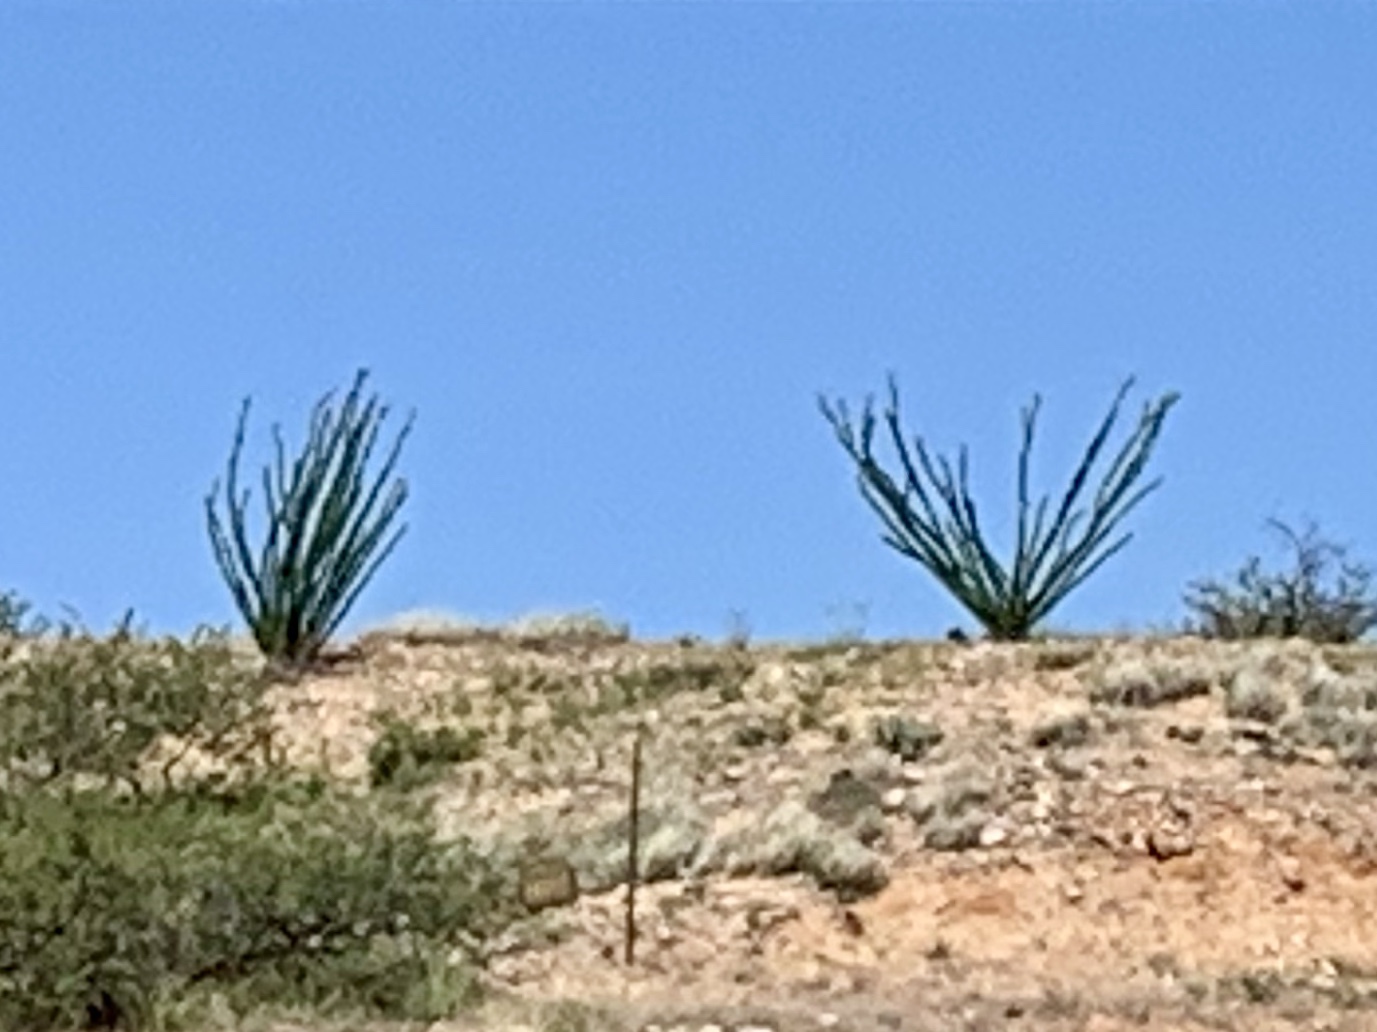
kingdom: Plantae
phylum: Tracheophyta
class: Magnoliopsida
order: Ericales
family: Fouquieriaceae
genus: Fouquieria
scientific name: Fouquieria splendens
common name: Vine-cactus
